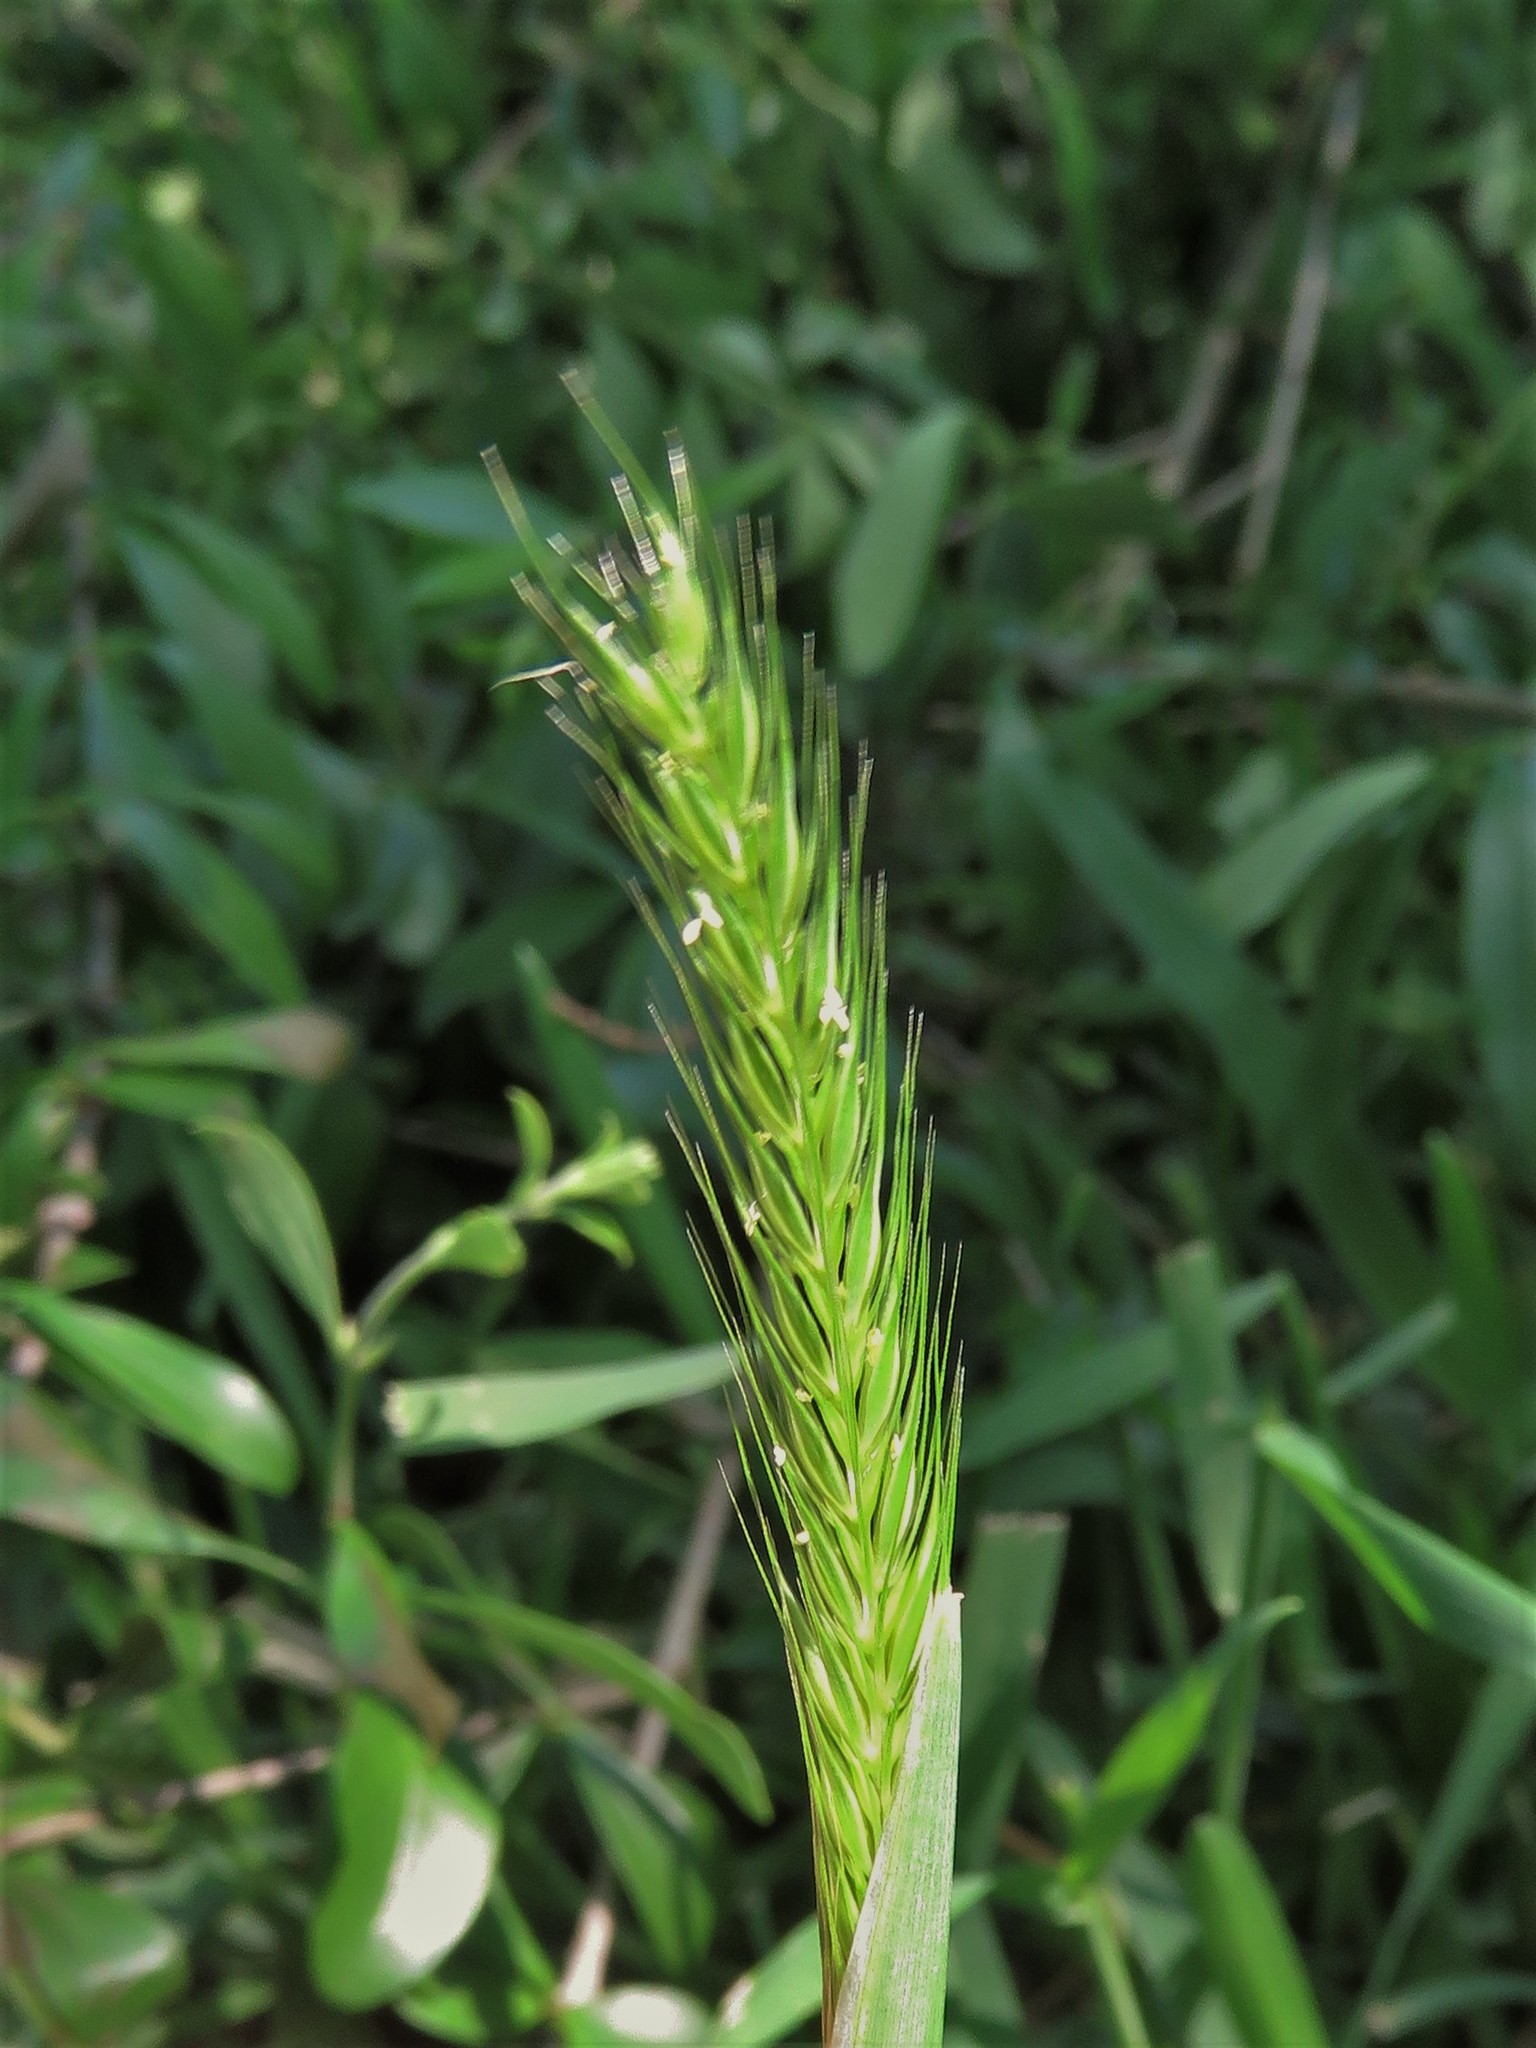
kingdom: Plantae
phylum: Tracheophyta
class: Liliopsida
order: Poales
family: Poaceae
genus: Hordeum
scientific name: Hordeum pusillum
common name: Little barley
